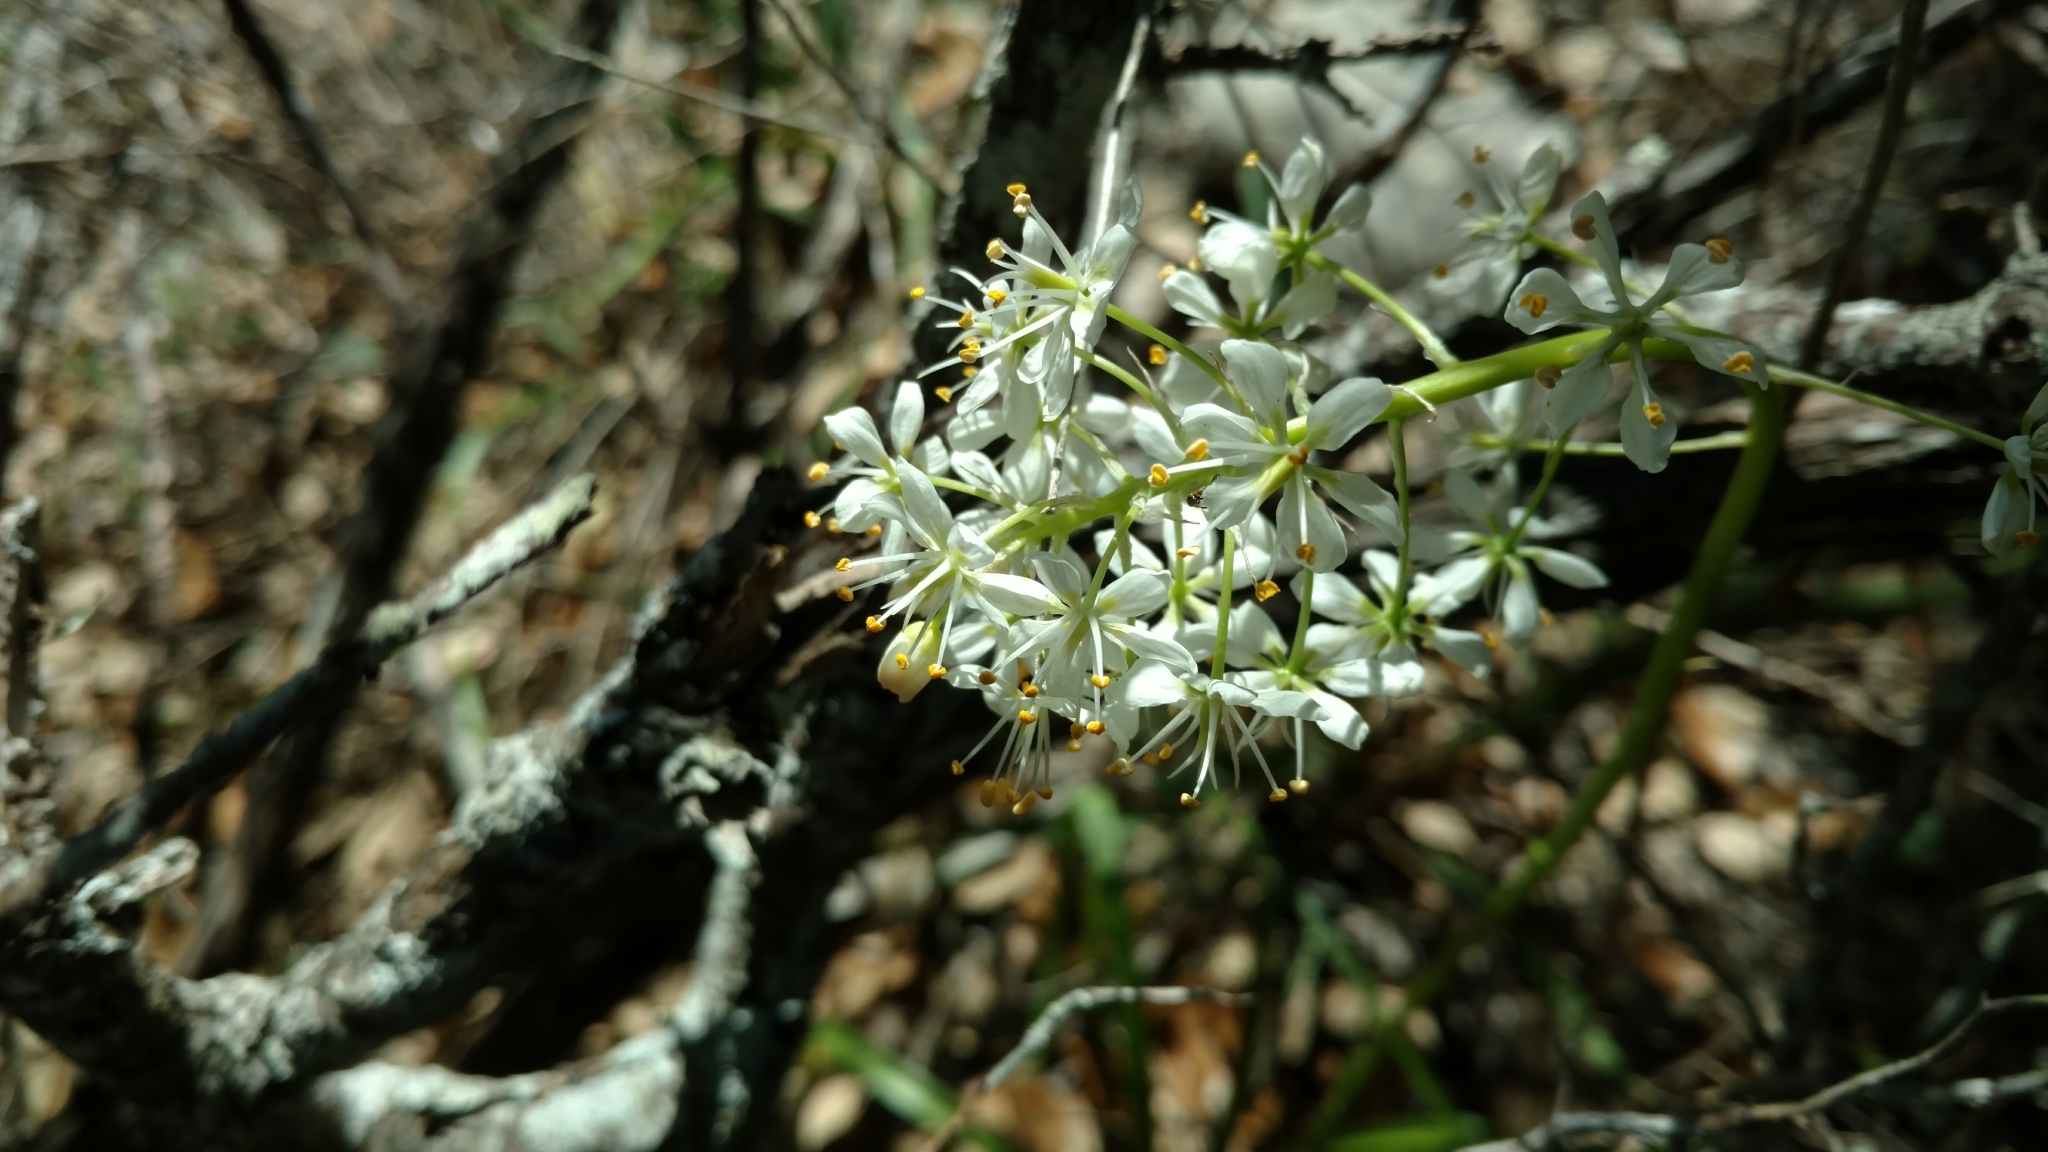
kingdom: Plantae
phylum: Tracheophyta
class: Liliopsida
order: Liliales
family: Melanthiaceae
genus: Toxicoscordion
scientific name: Toxicoscordion nuttallii
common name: Poison sego
